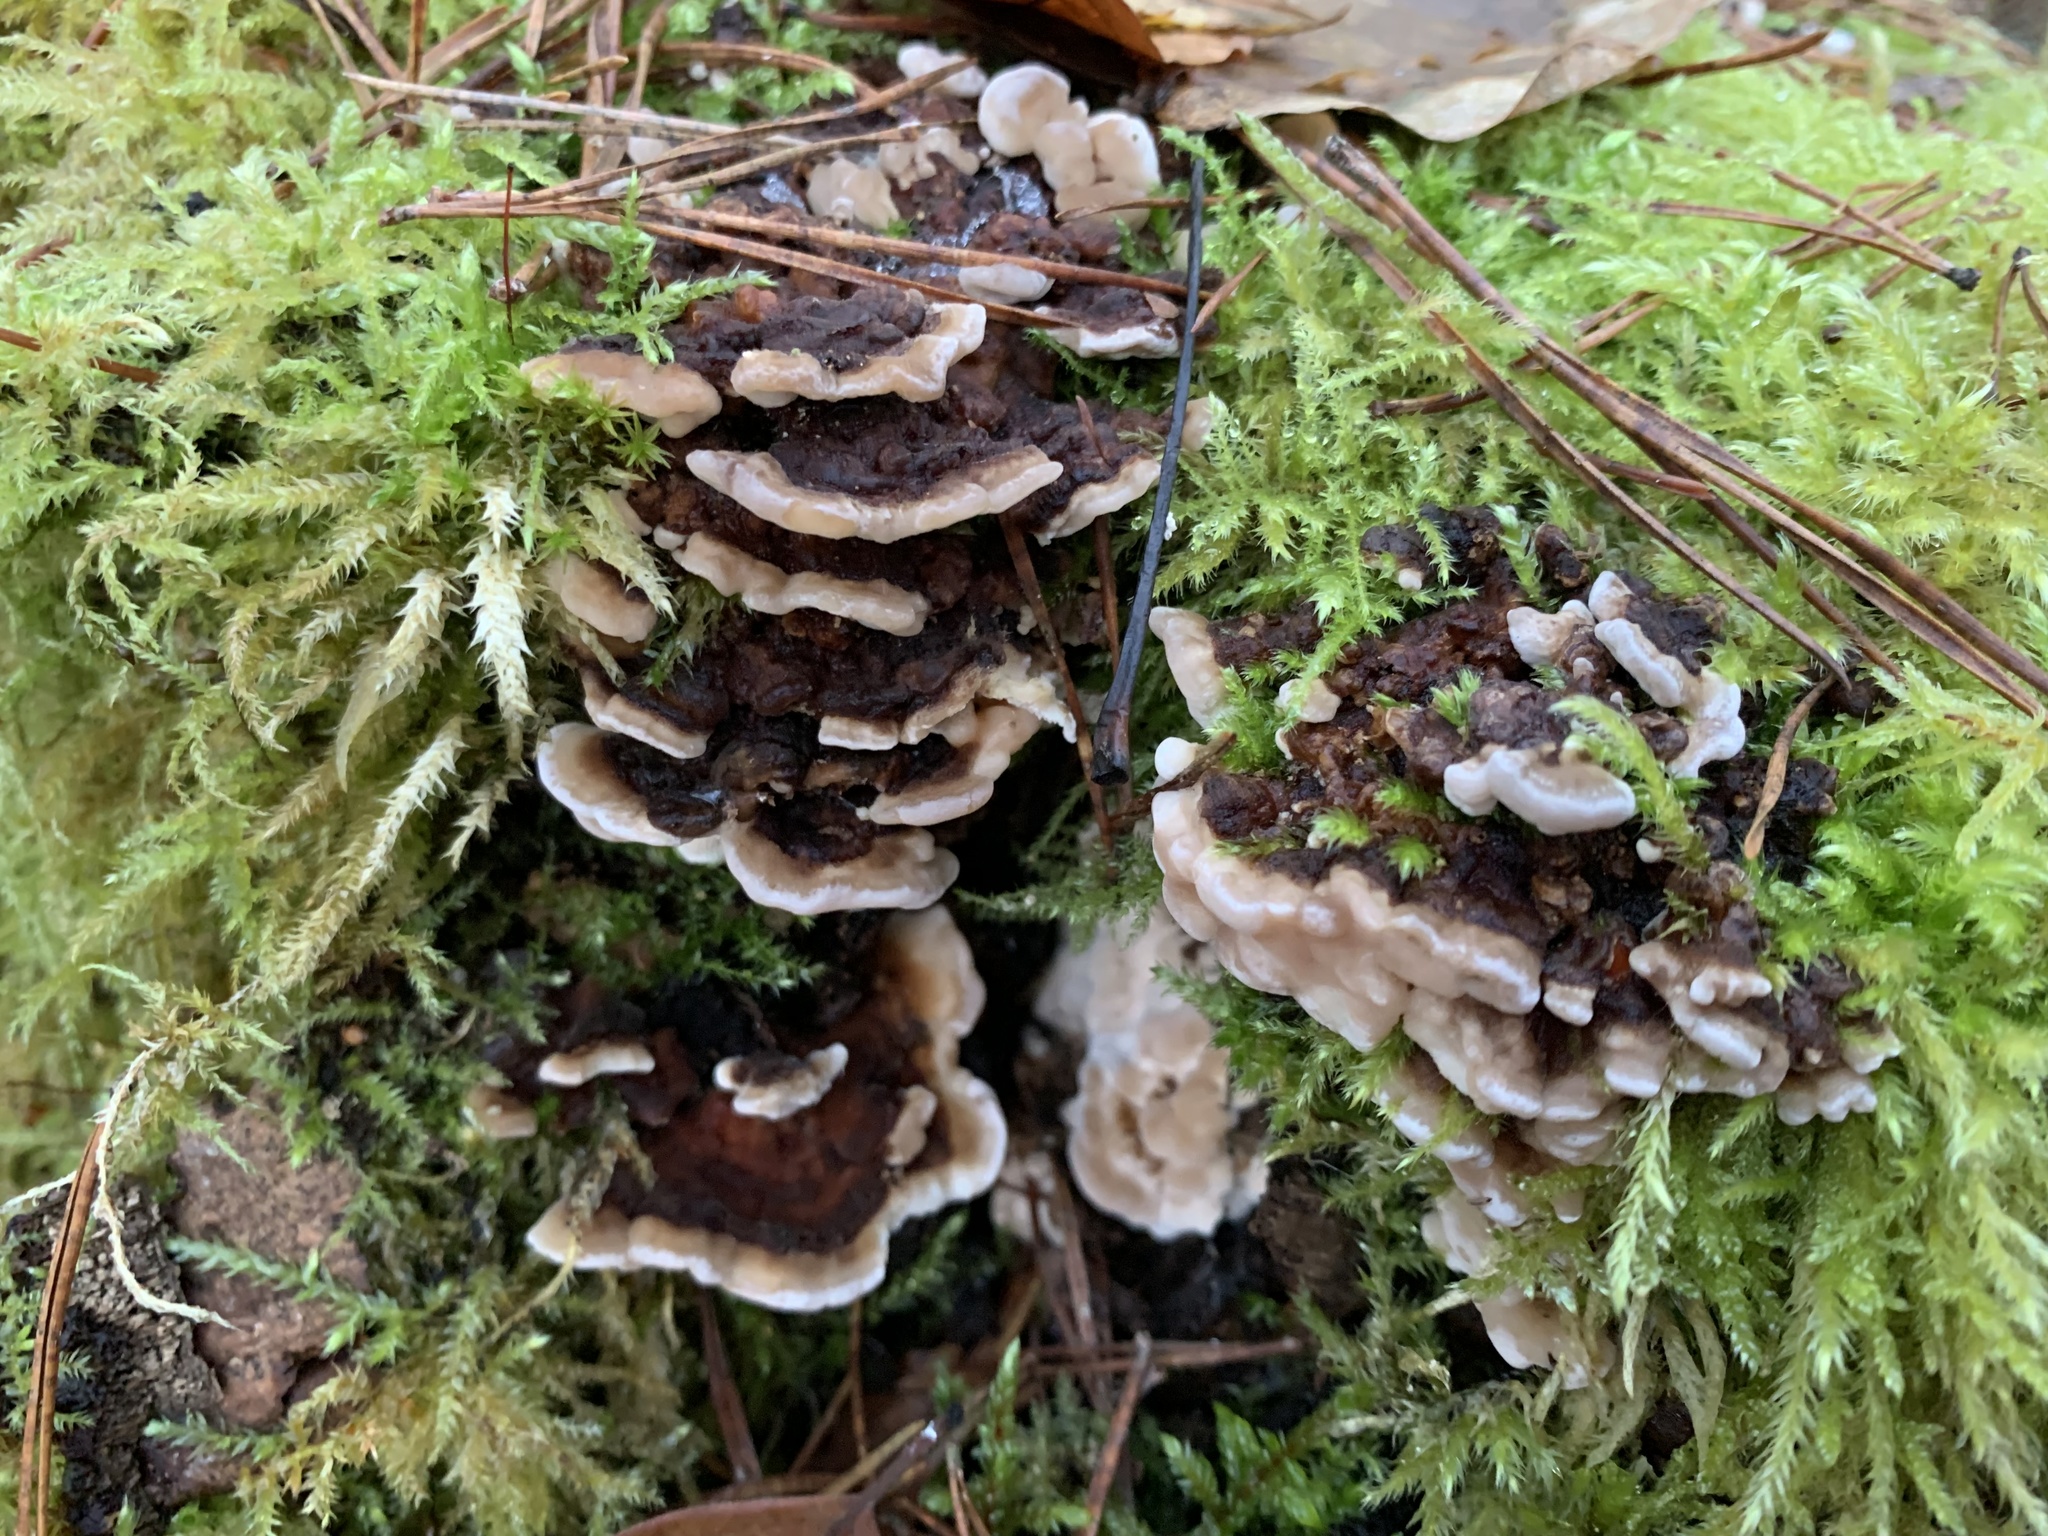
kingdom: Fungi
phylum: Basidiomycota
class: Agaricomycetes
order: Polyporales
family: Polyporaceae
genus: Trametes
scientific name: Trametes versicolor
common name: Turkeytail
